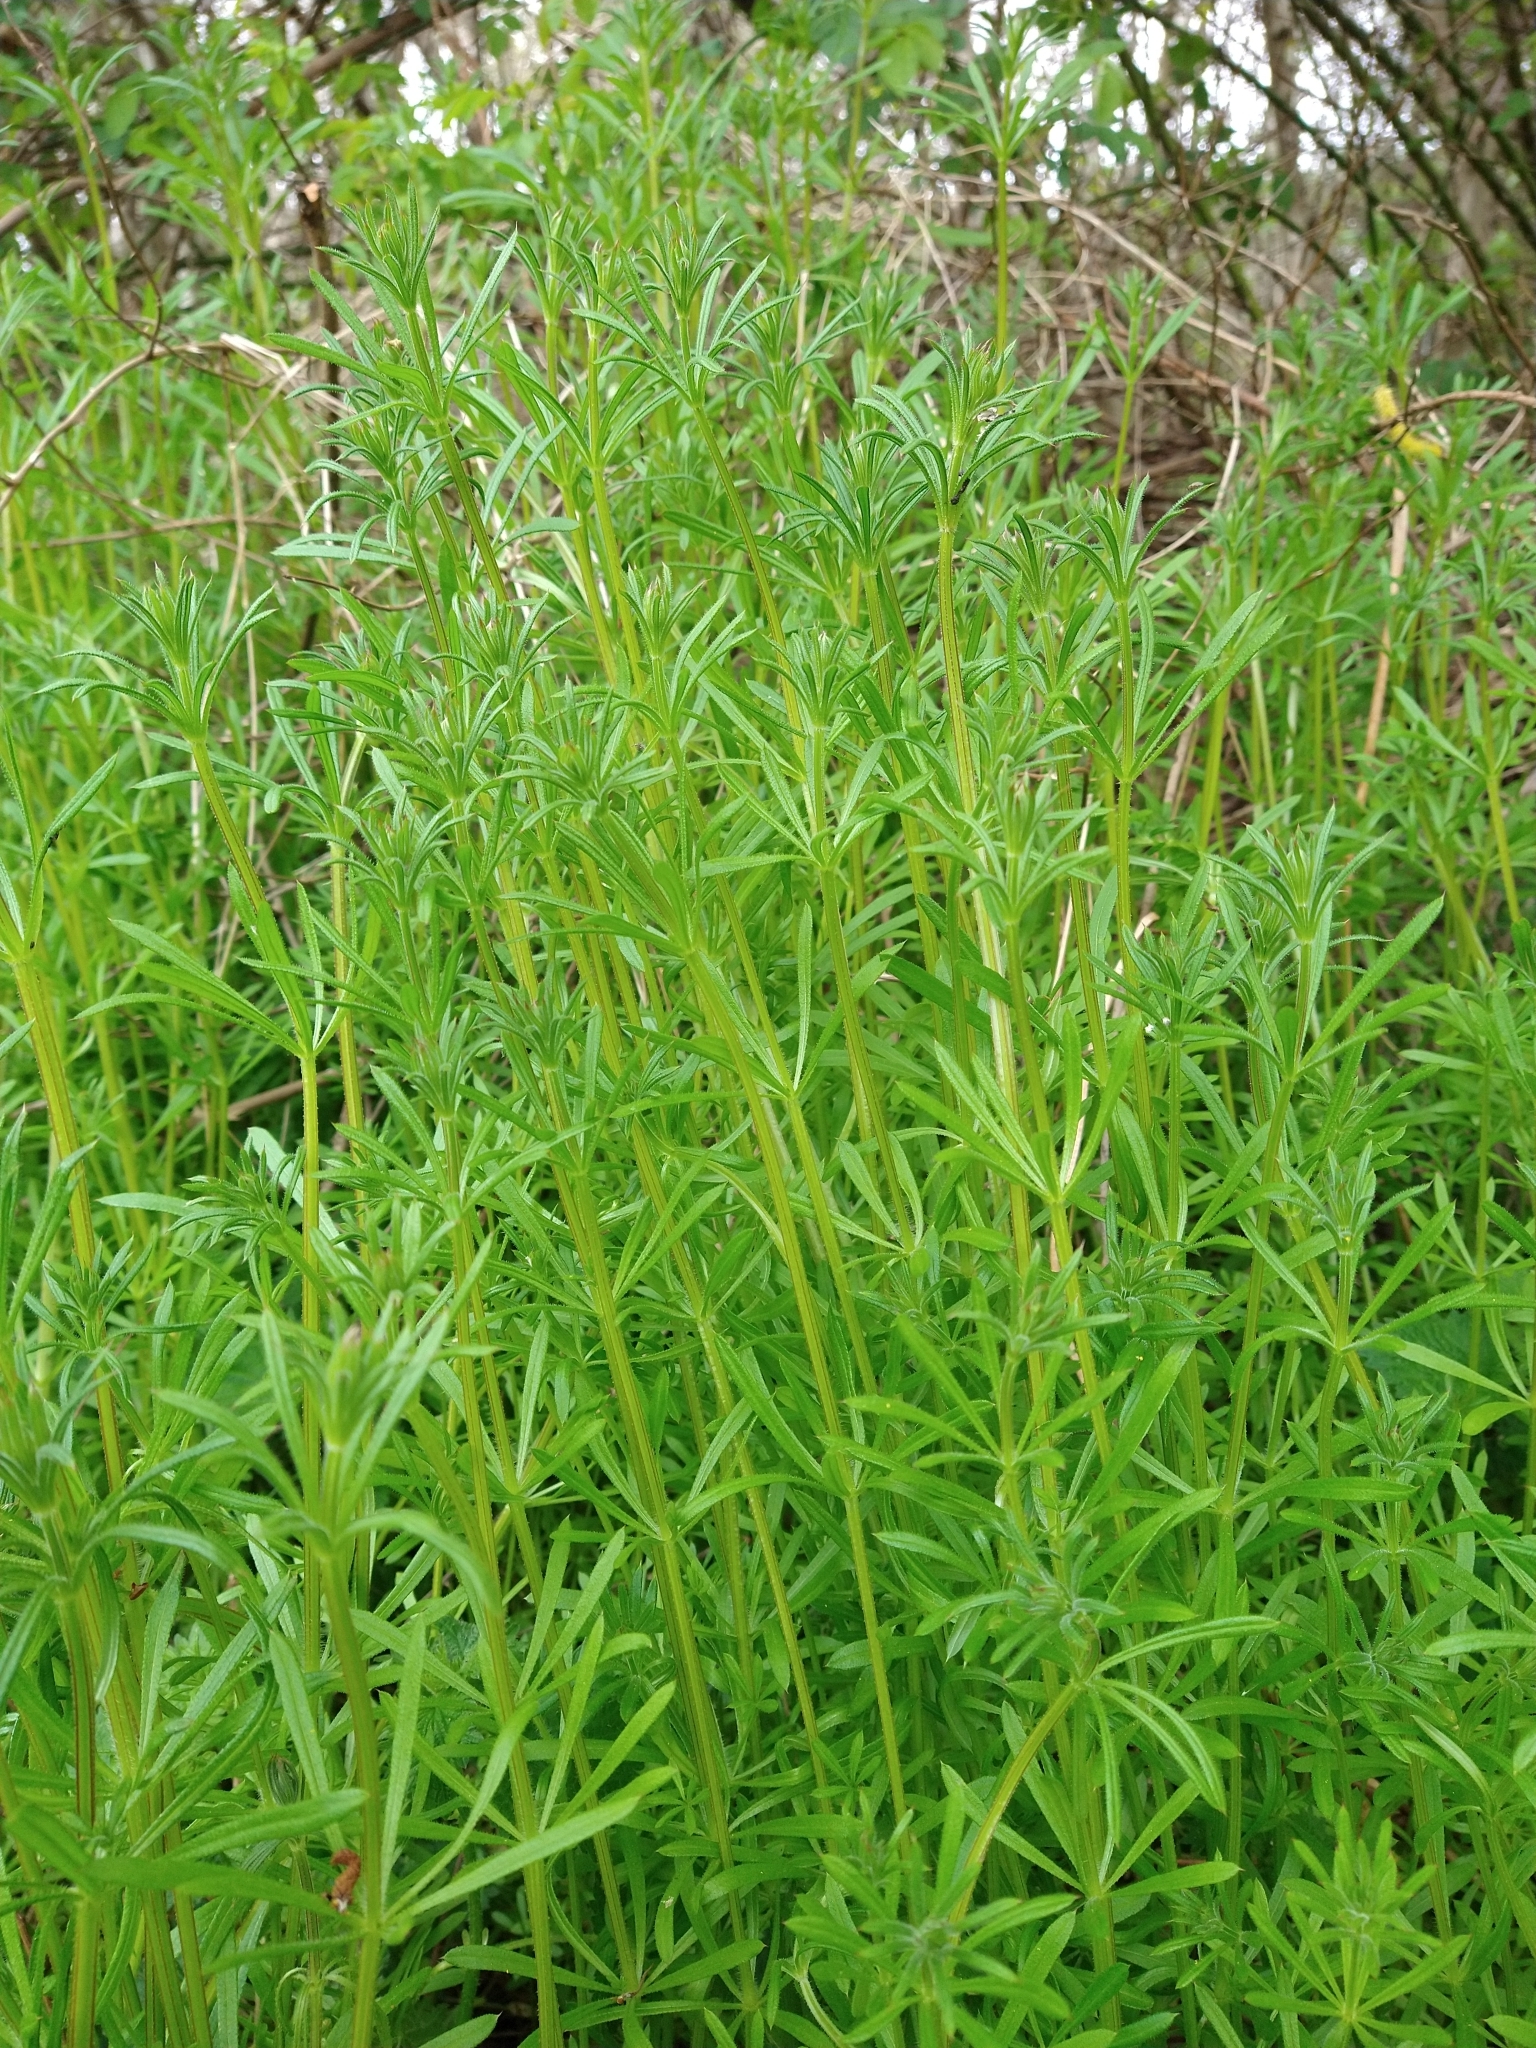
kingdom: Plantae
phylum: Tracheophyta
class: Magnoliopsida
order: Gentianales
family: Rubiaceae
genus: Galium
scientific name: Galium aparine
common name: Cleavers
